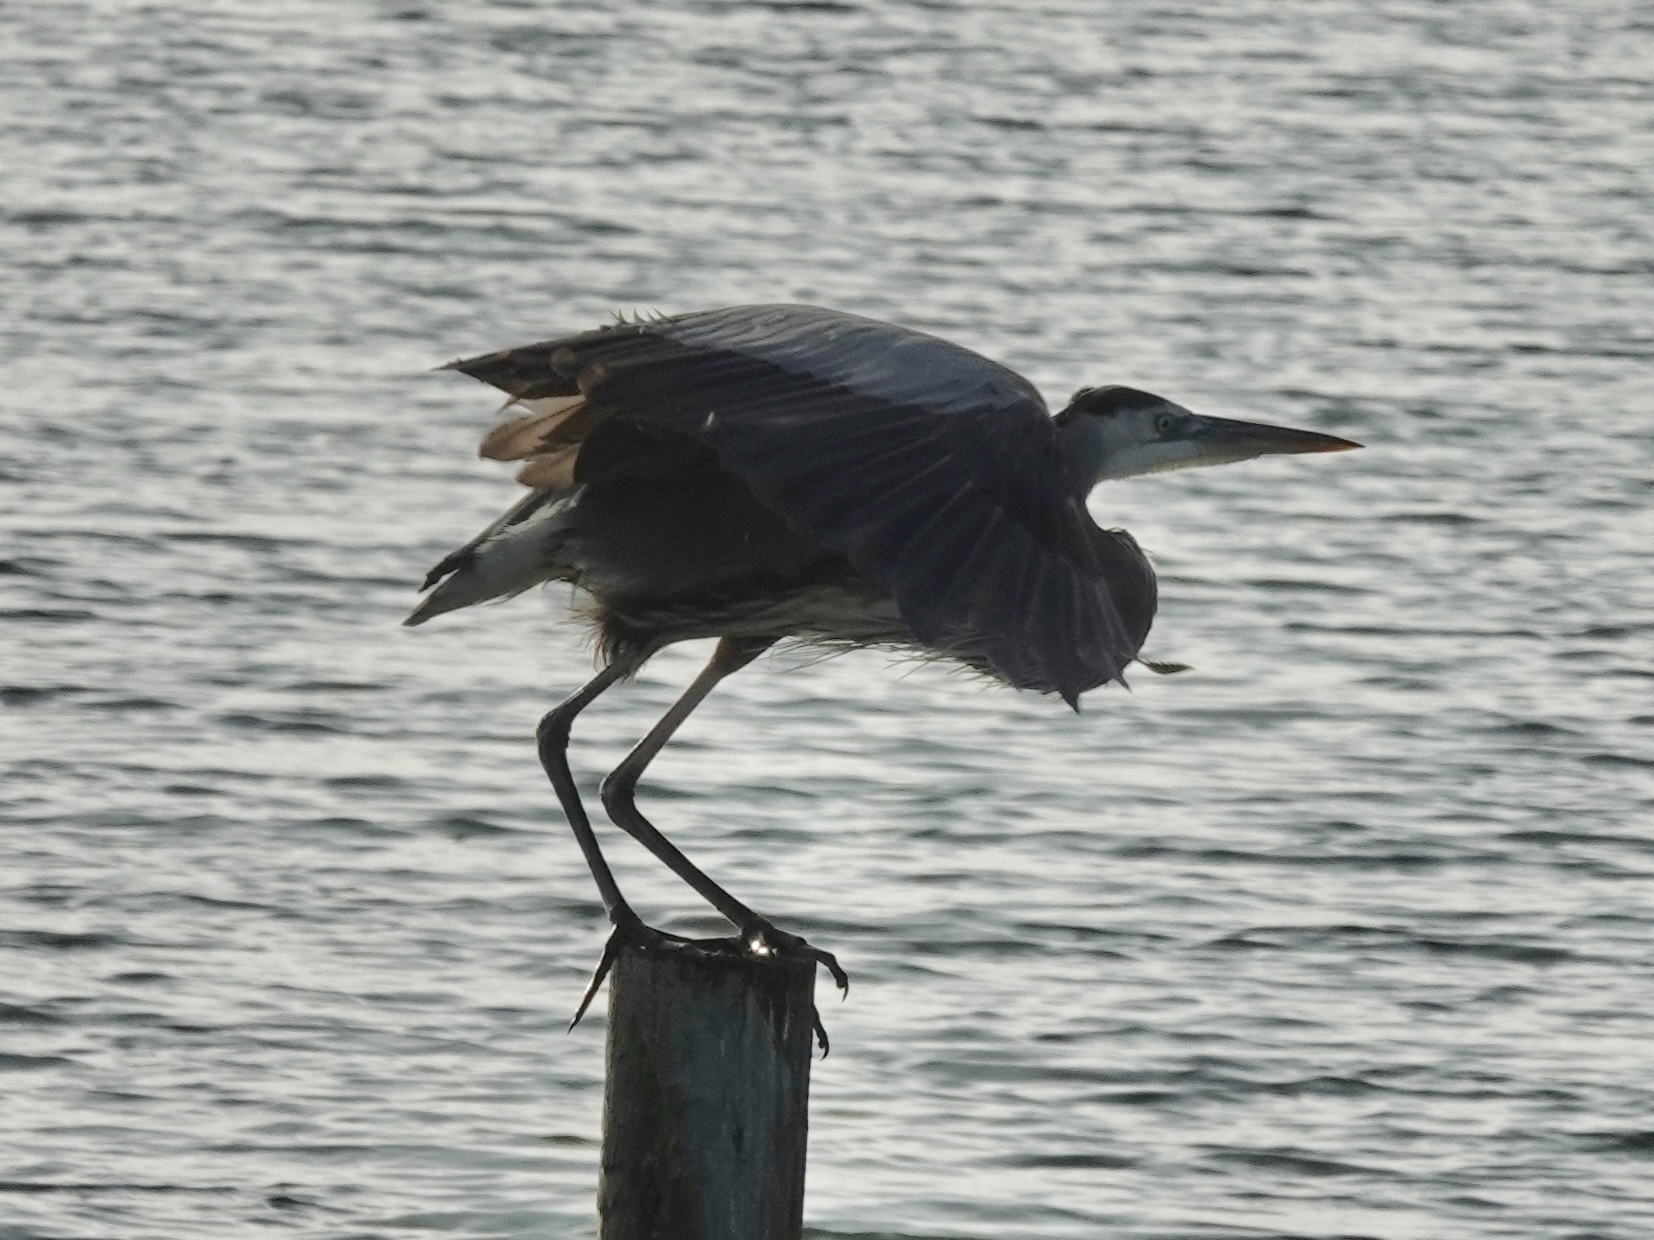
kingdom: Animalia
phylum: Chordata
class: Aves
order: Pelecaniformes
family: Ardeidae
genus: Ardea
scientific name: Ardea herodias
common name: Great blue heron
